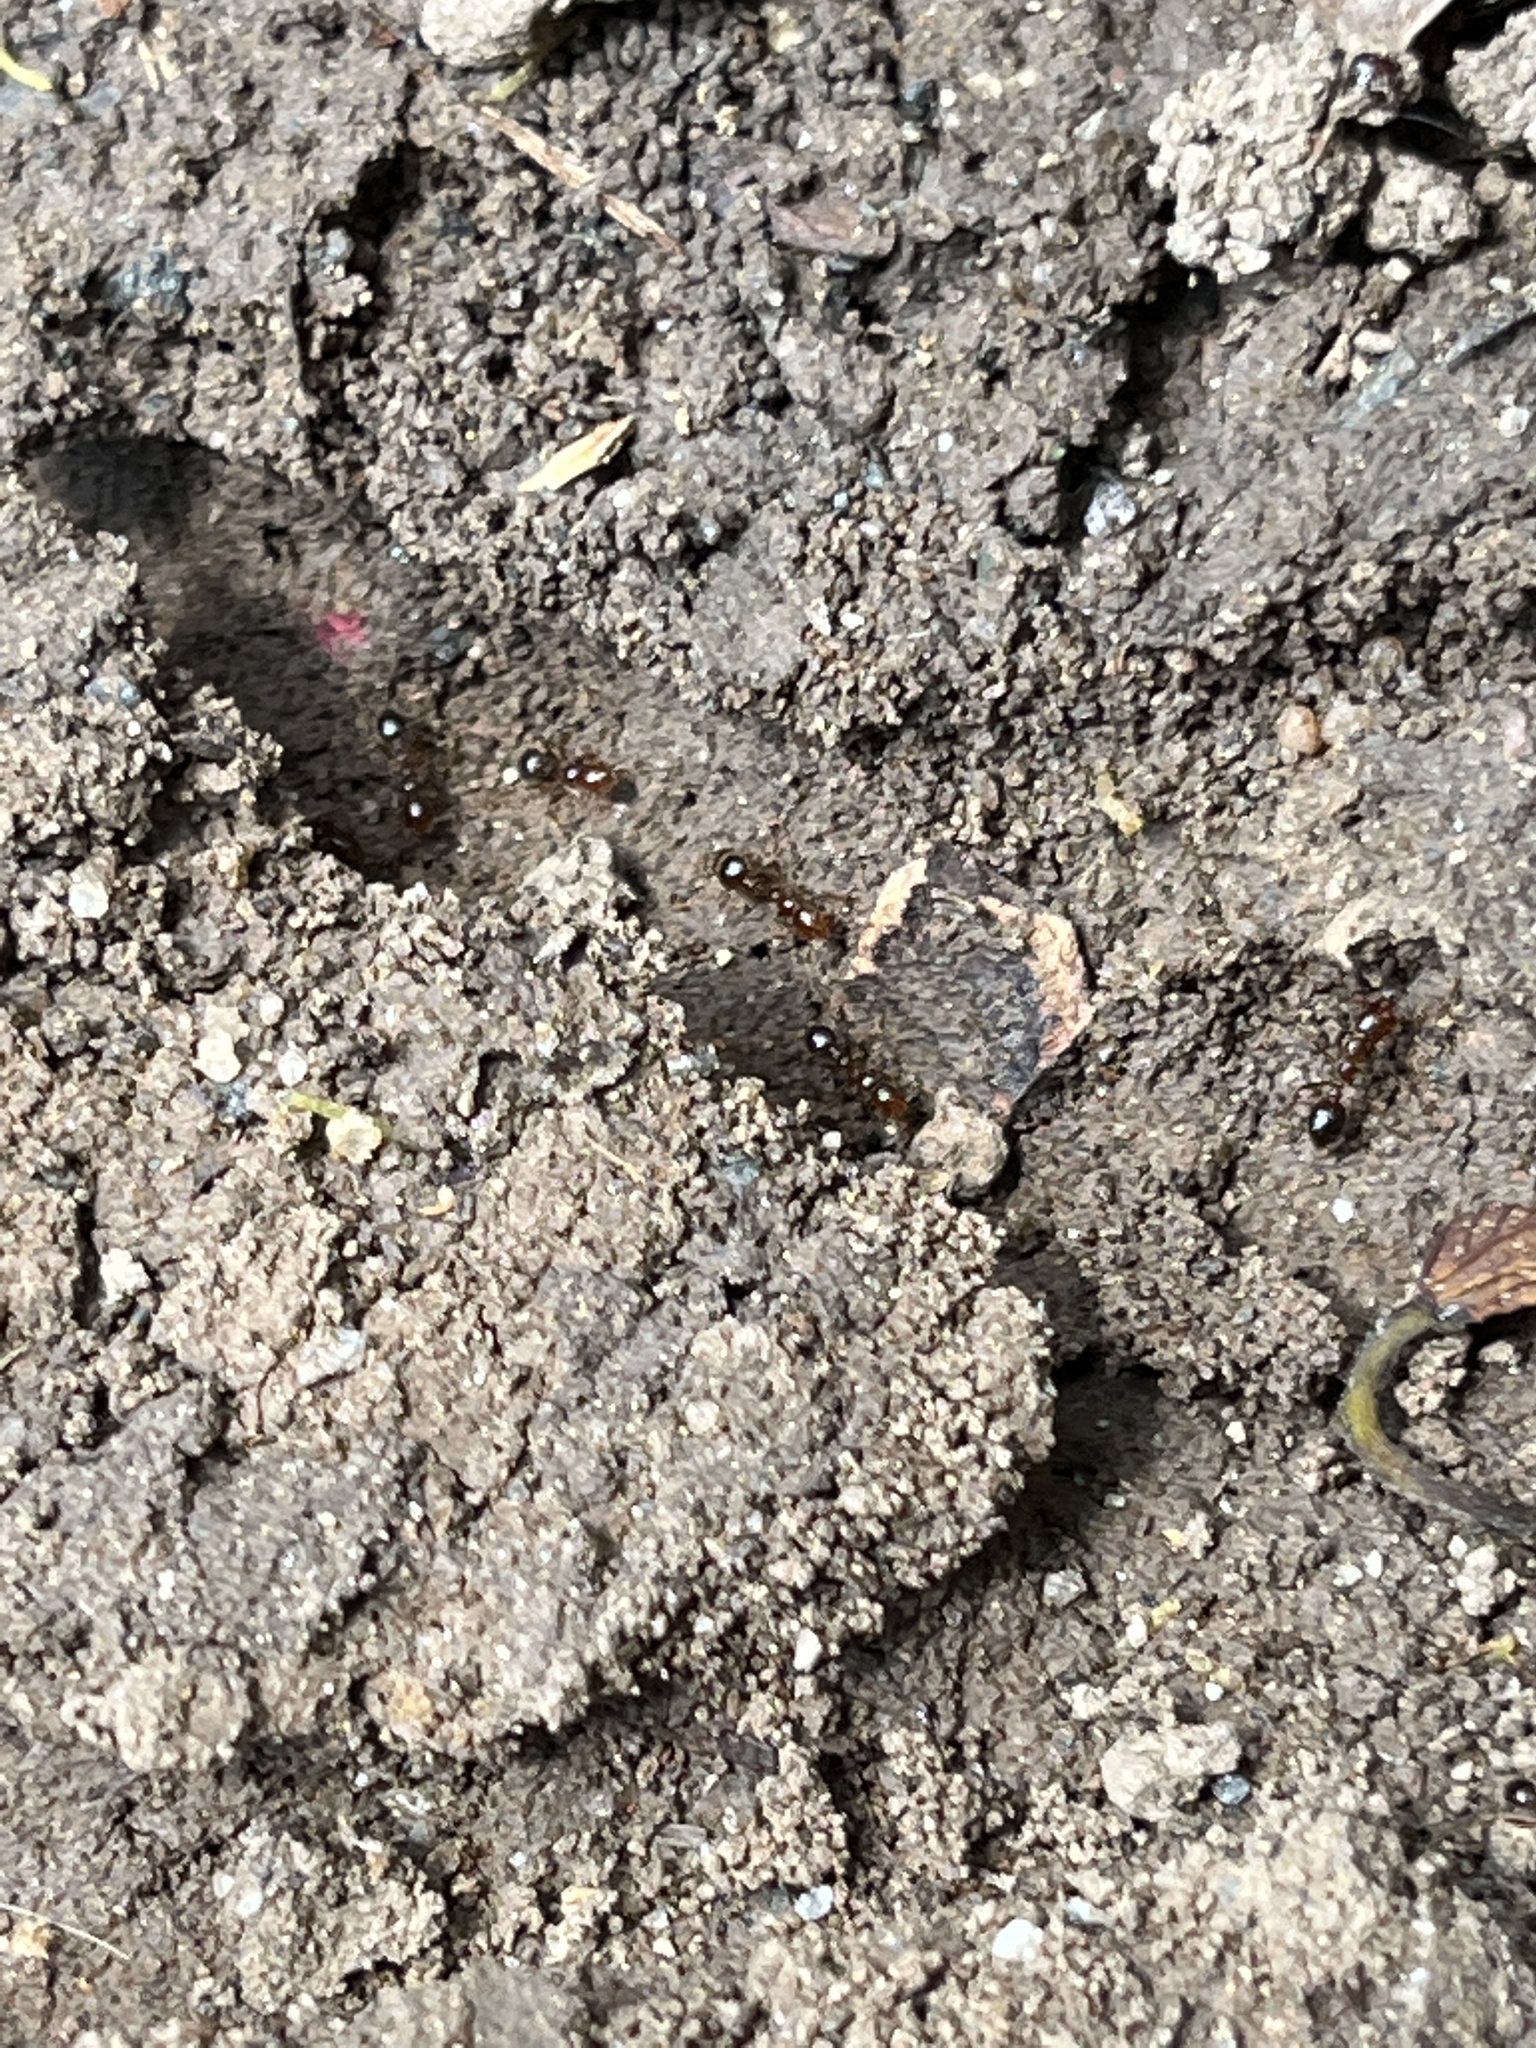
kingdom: Animalia
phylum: Arthropoda
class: Insecta
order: Hymenoptera
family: Formicidae
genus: Solenopsis
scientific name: Solenopsis invicta
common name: Red imported fire ant
